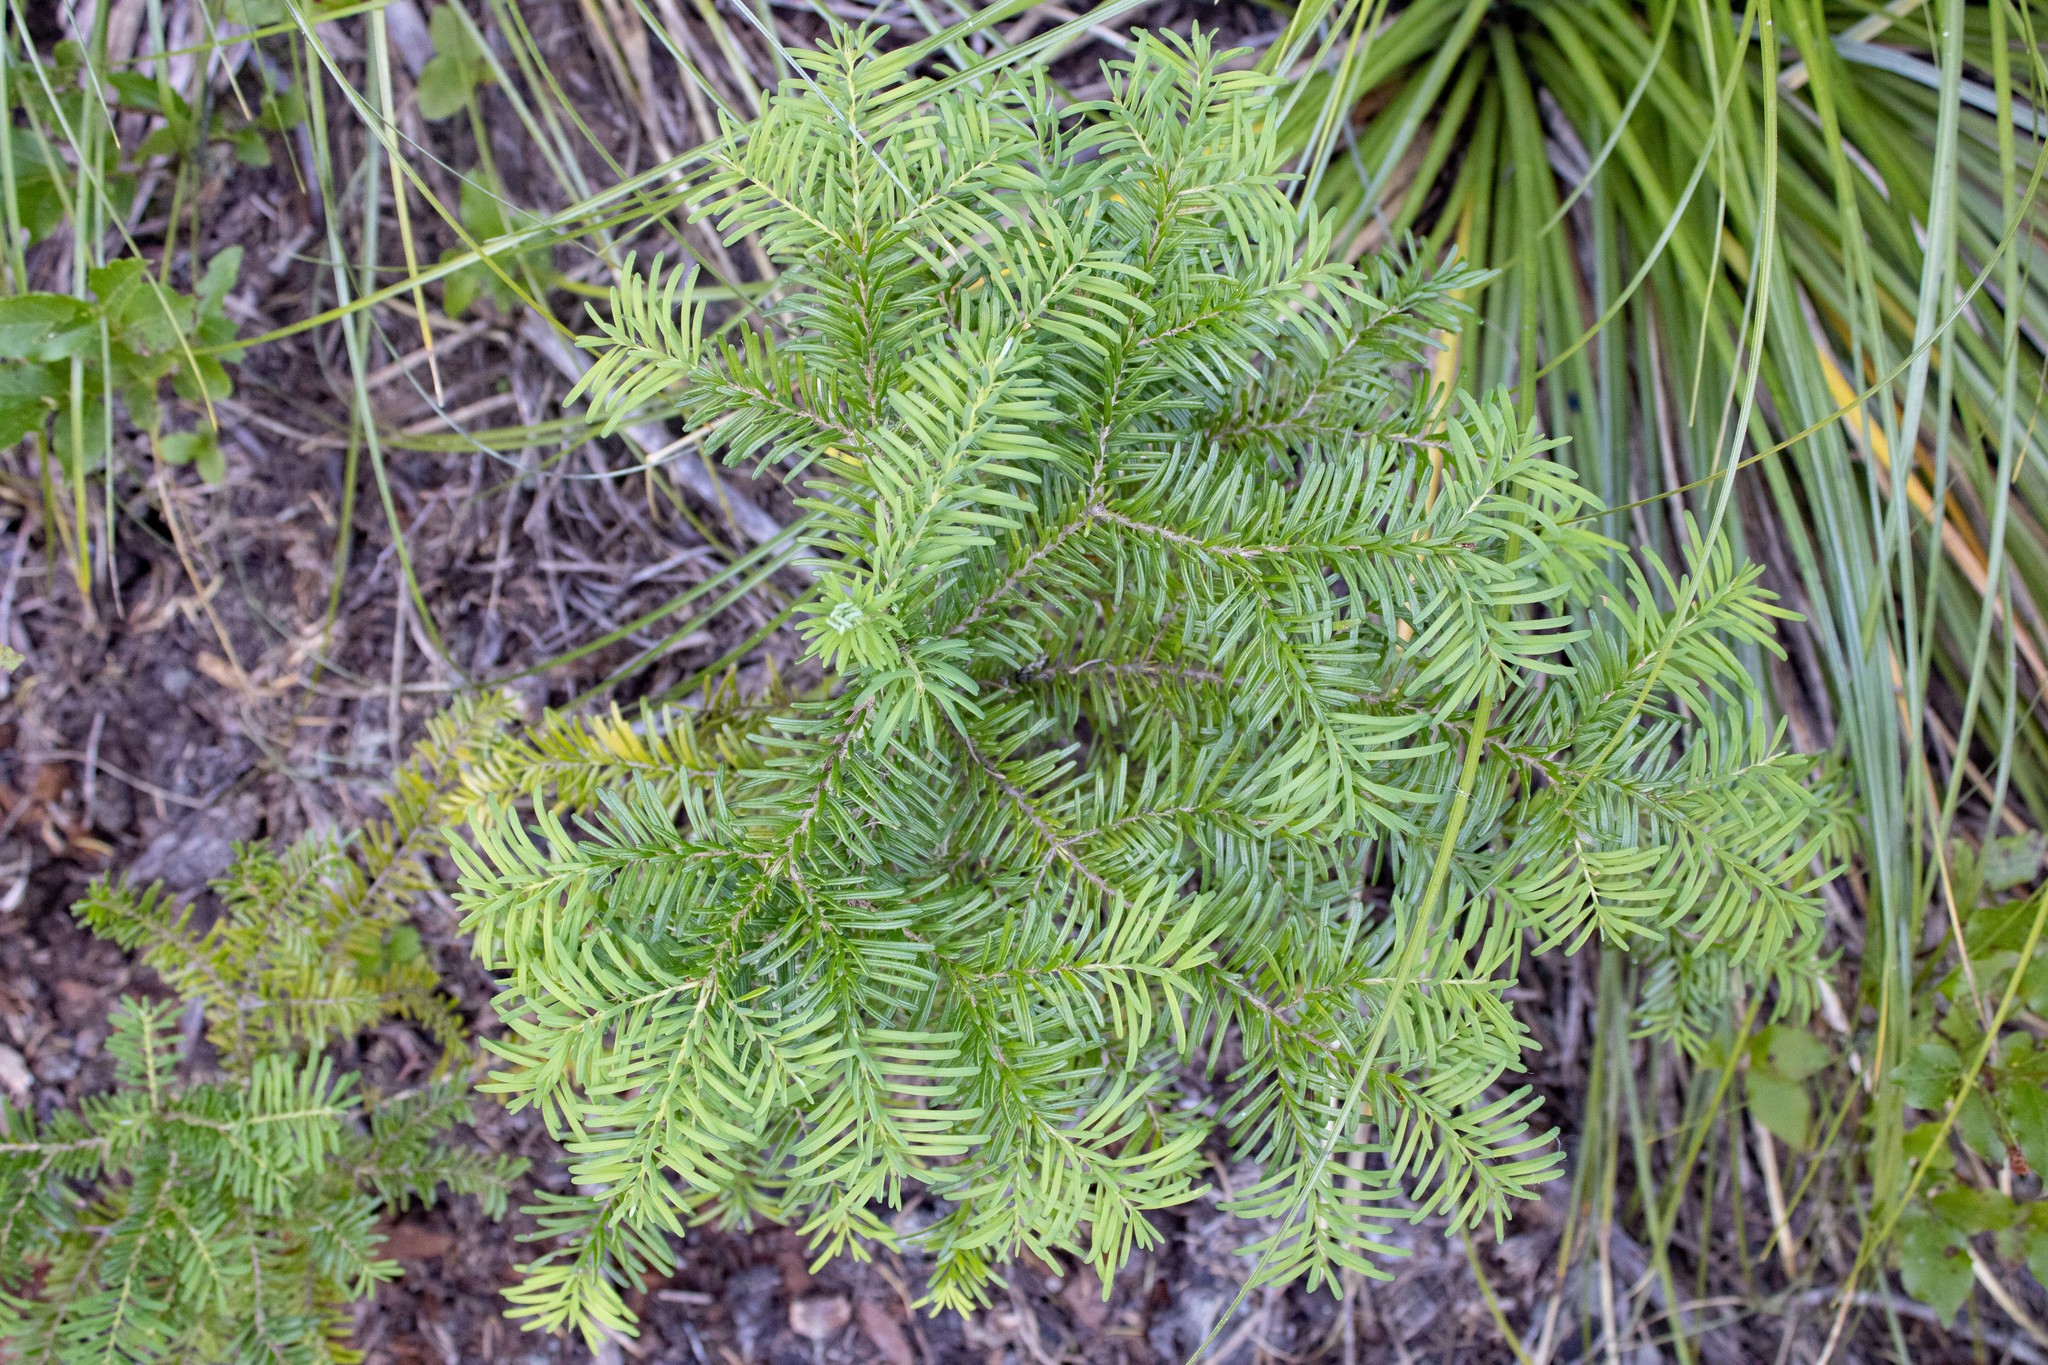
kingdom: Plantae
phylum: Tracheophyta
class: Pinopsida
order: Pinales
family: Pinaceae
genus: Abies
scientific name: Abies amabilis
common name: Pacific silver fir
